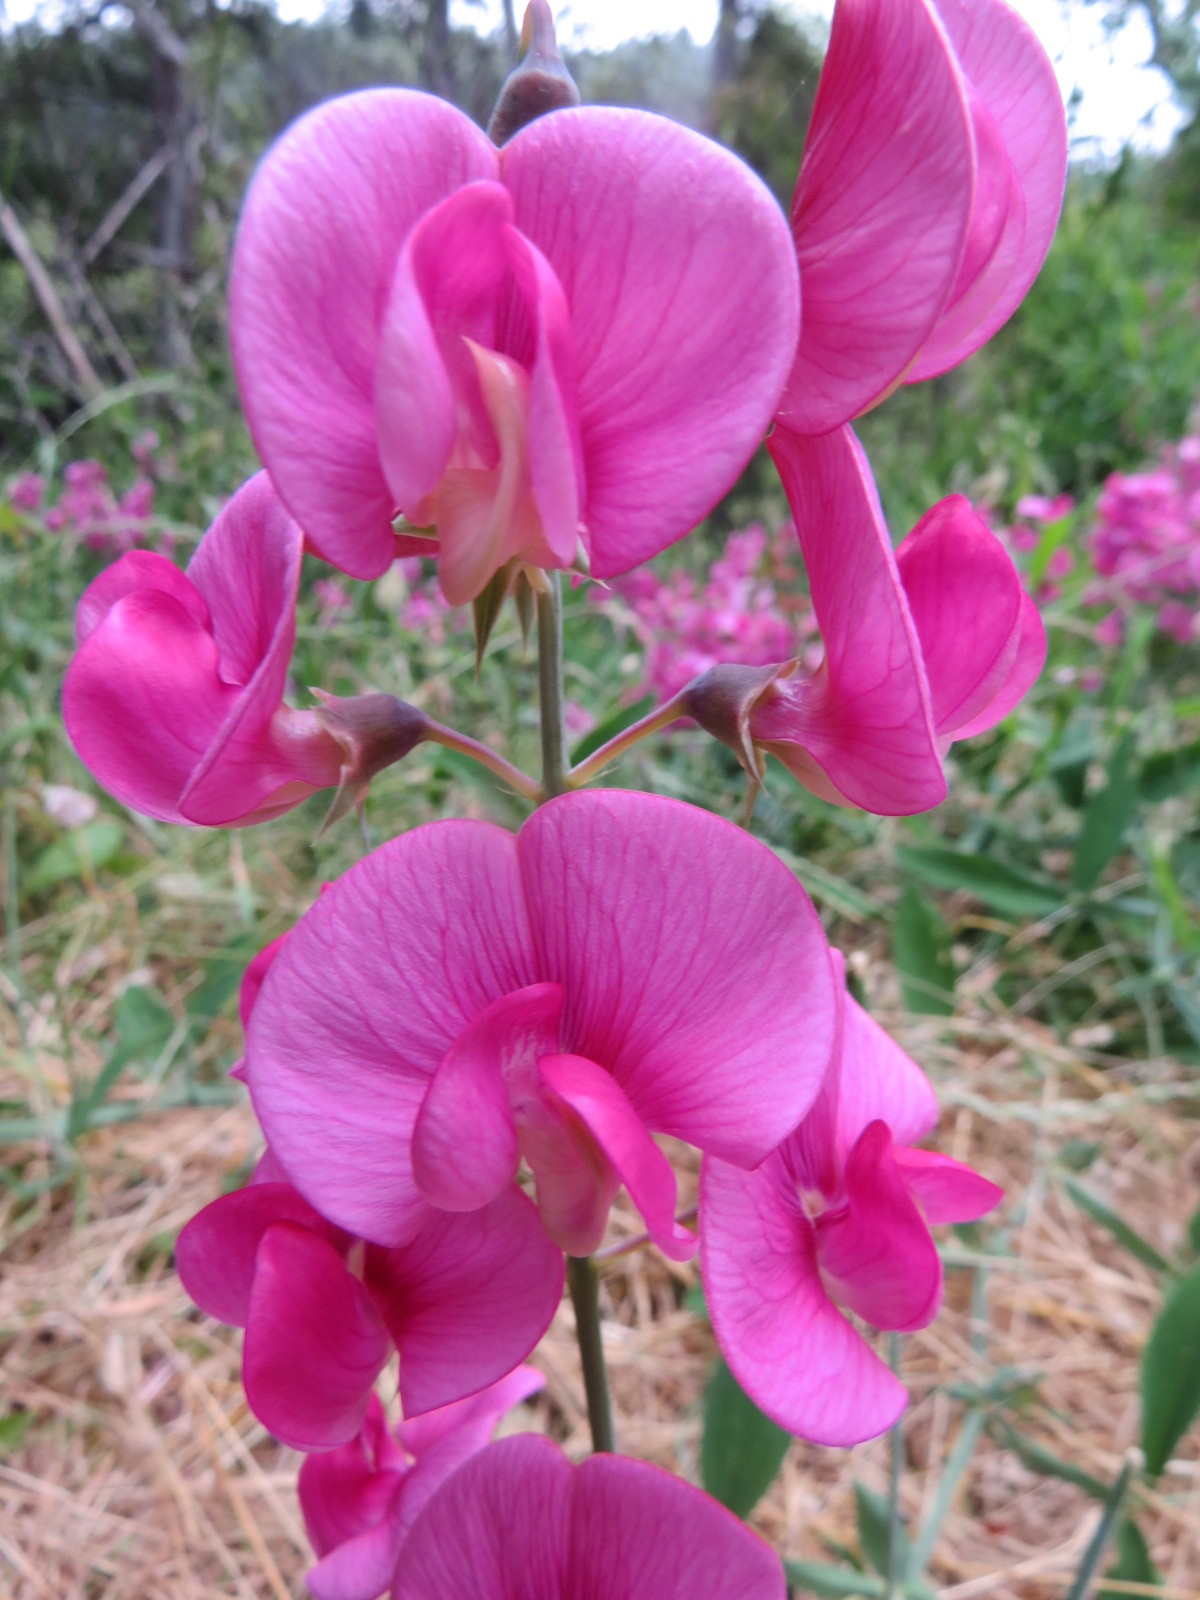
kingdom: Plantae
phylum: Tracheophyta
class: Magnoliopsida
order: Fabales
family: Fabaceae
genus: Lathyrus
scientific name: Lathyrus latifolius
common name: Perennial pea
